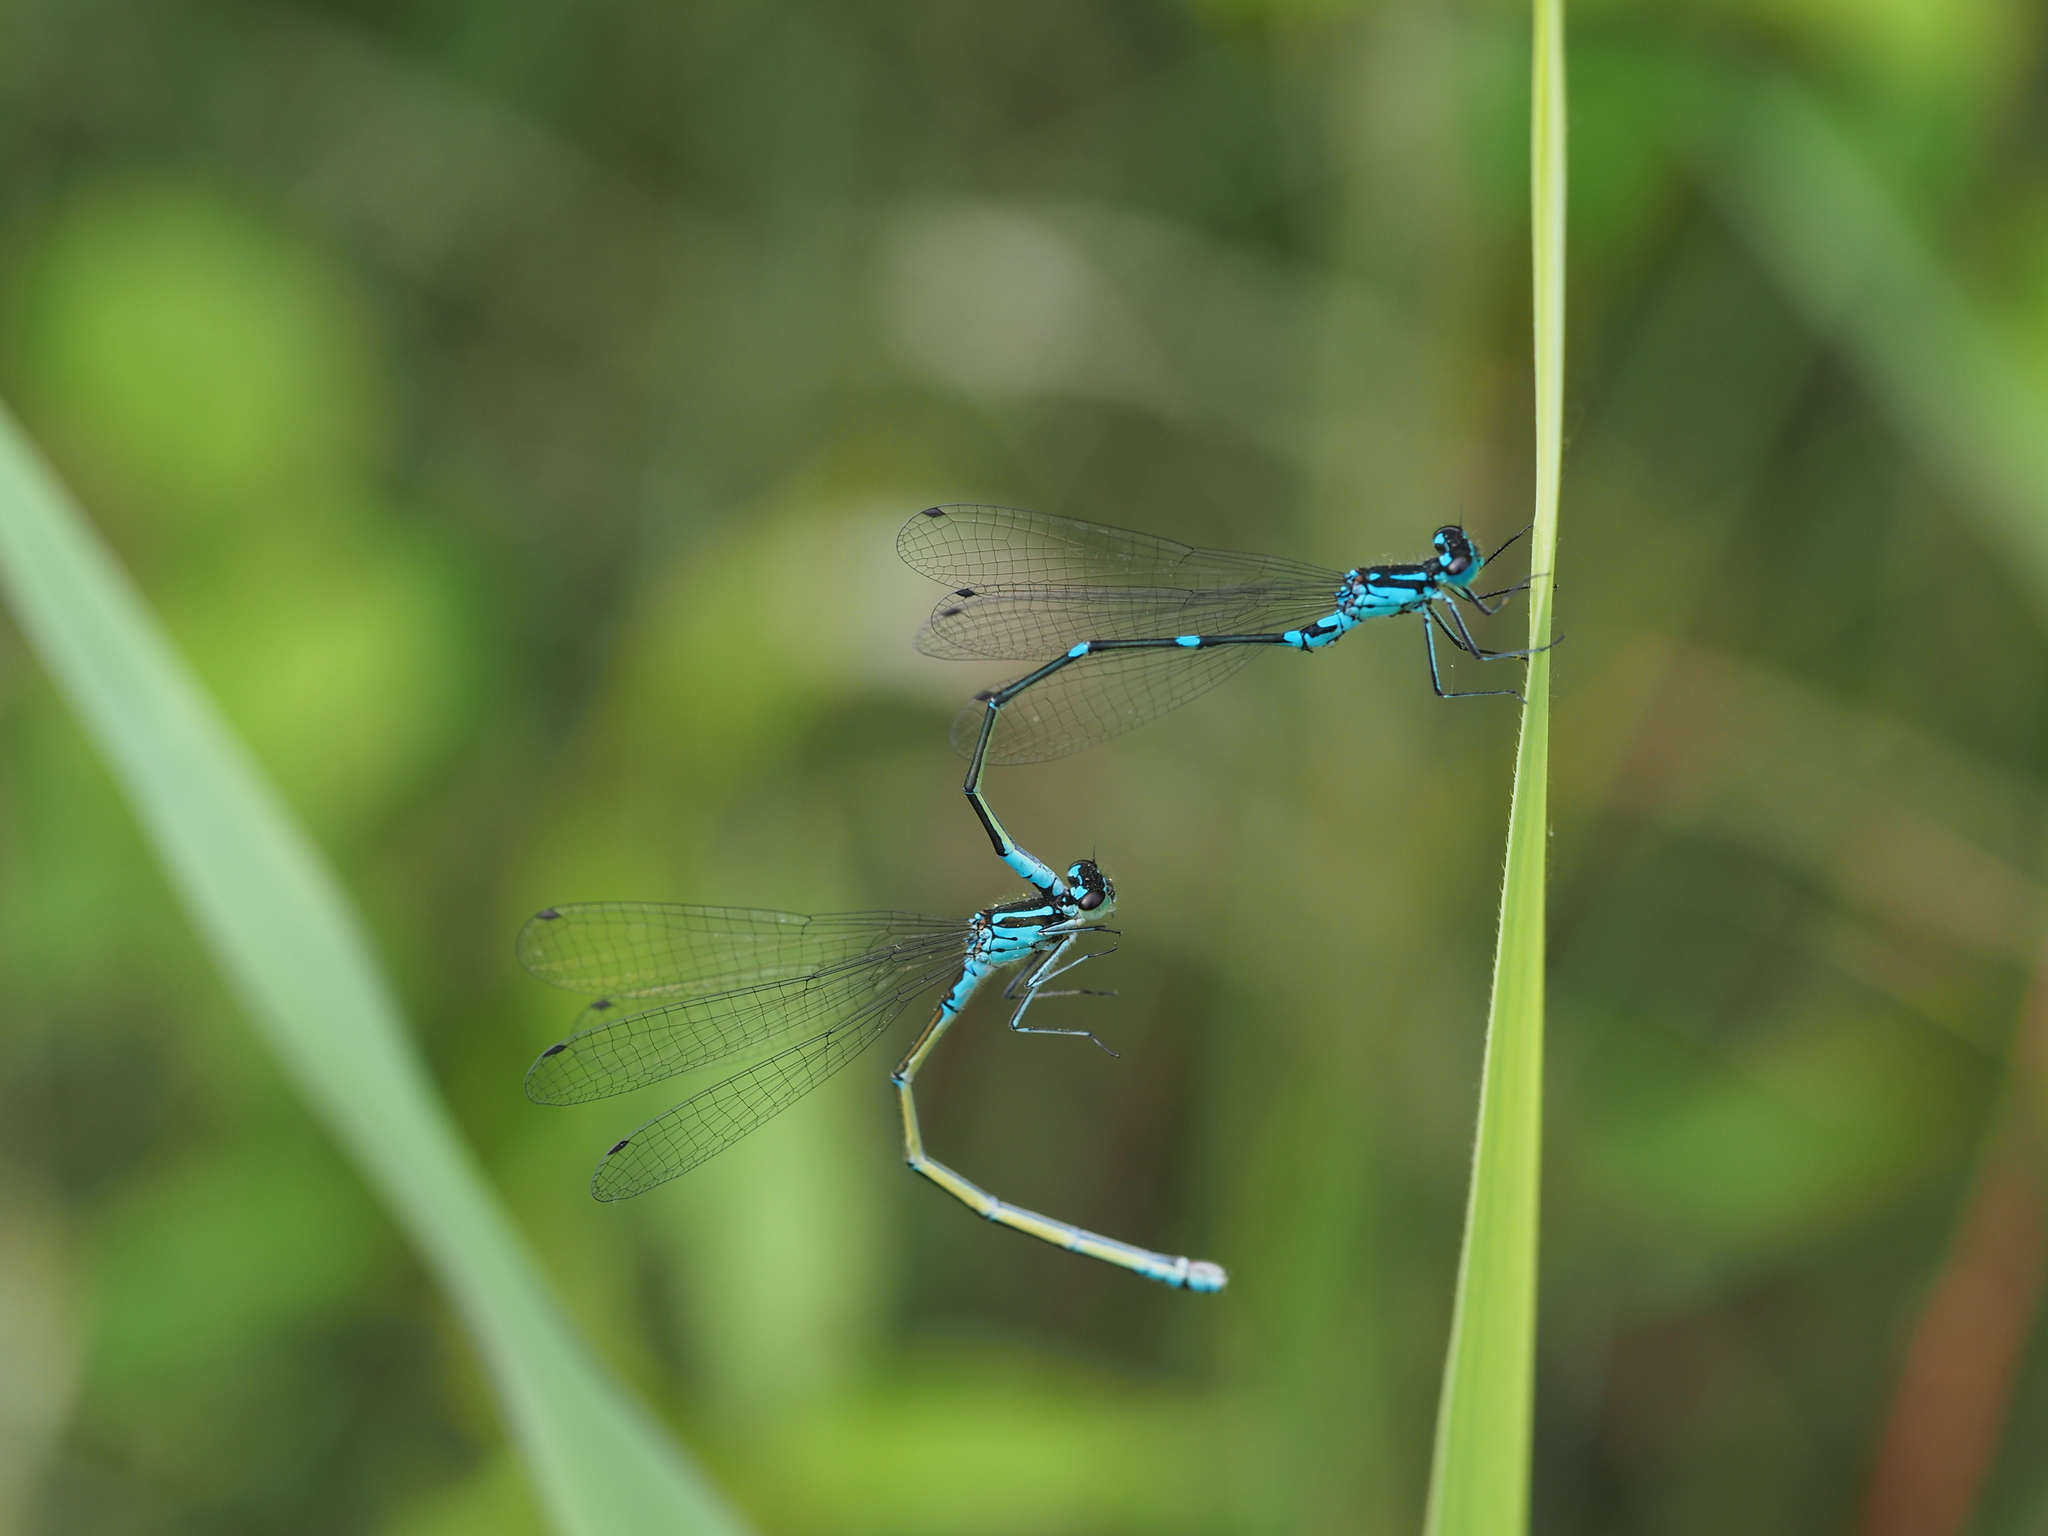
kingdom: Animalia
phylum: Arthropoda
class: Insecta
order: Odonata
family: Coenagrionidae
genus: Coenagrion
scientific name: Coenagrion pulchellum
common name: Variable bluet
